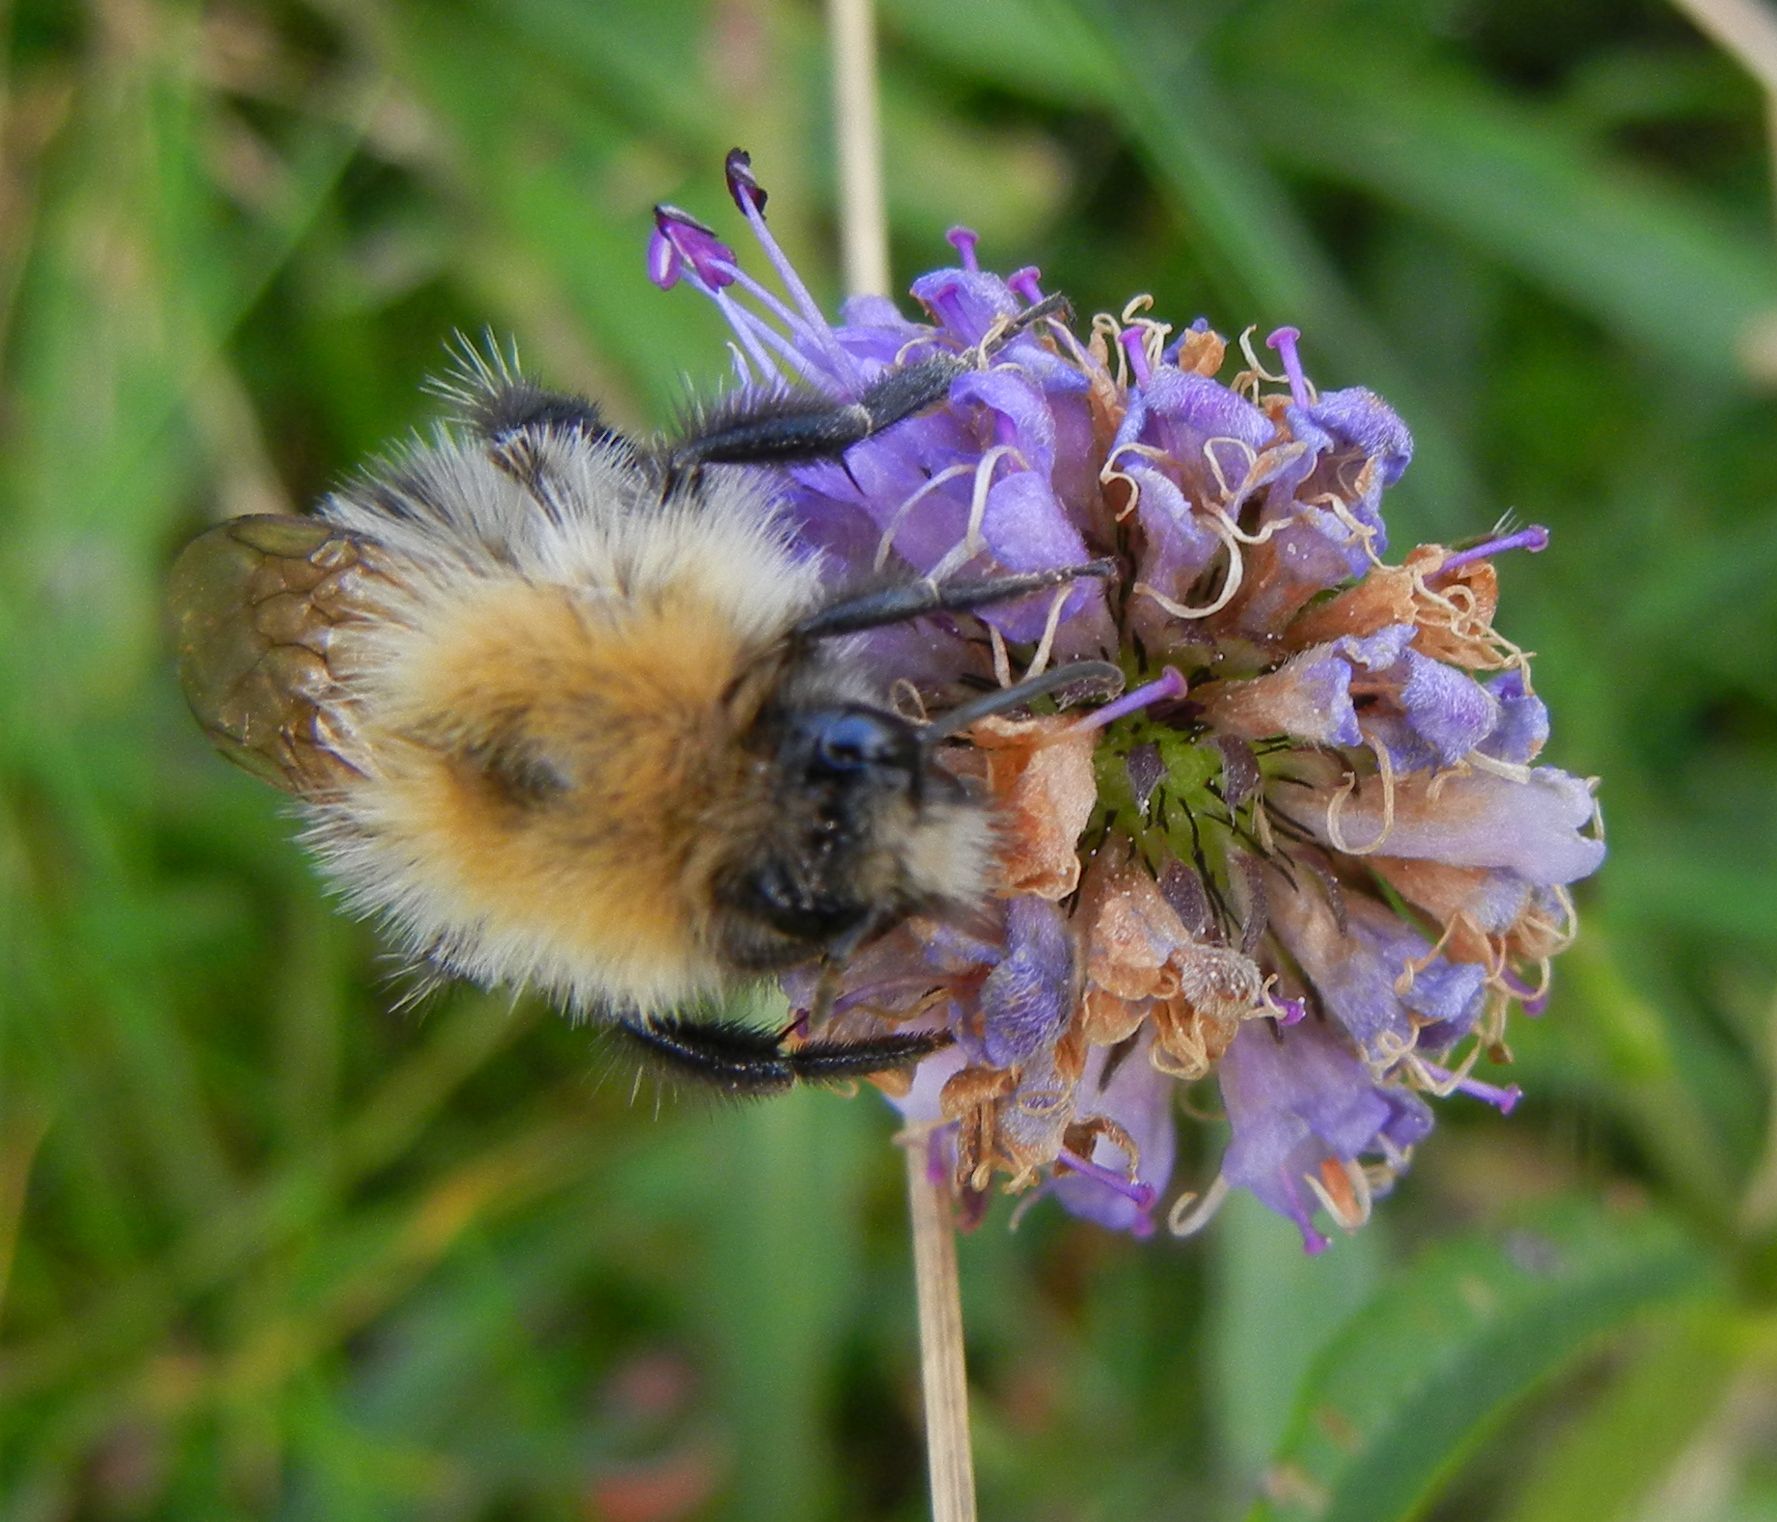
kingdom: Animalia
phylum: Arthropoda
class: Insecta
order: Hymenoptera
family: Apidae
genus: Bombus
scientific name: Bombus pascuorum
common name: Common carder bee
